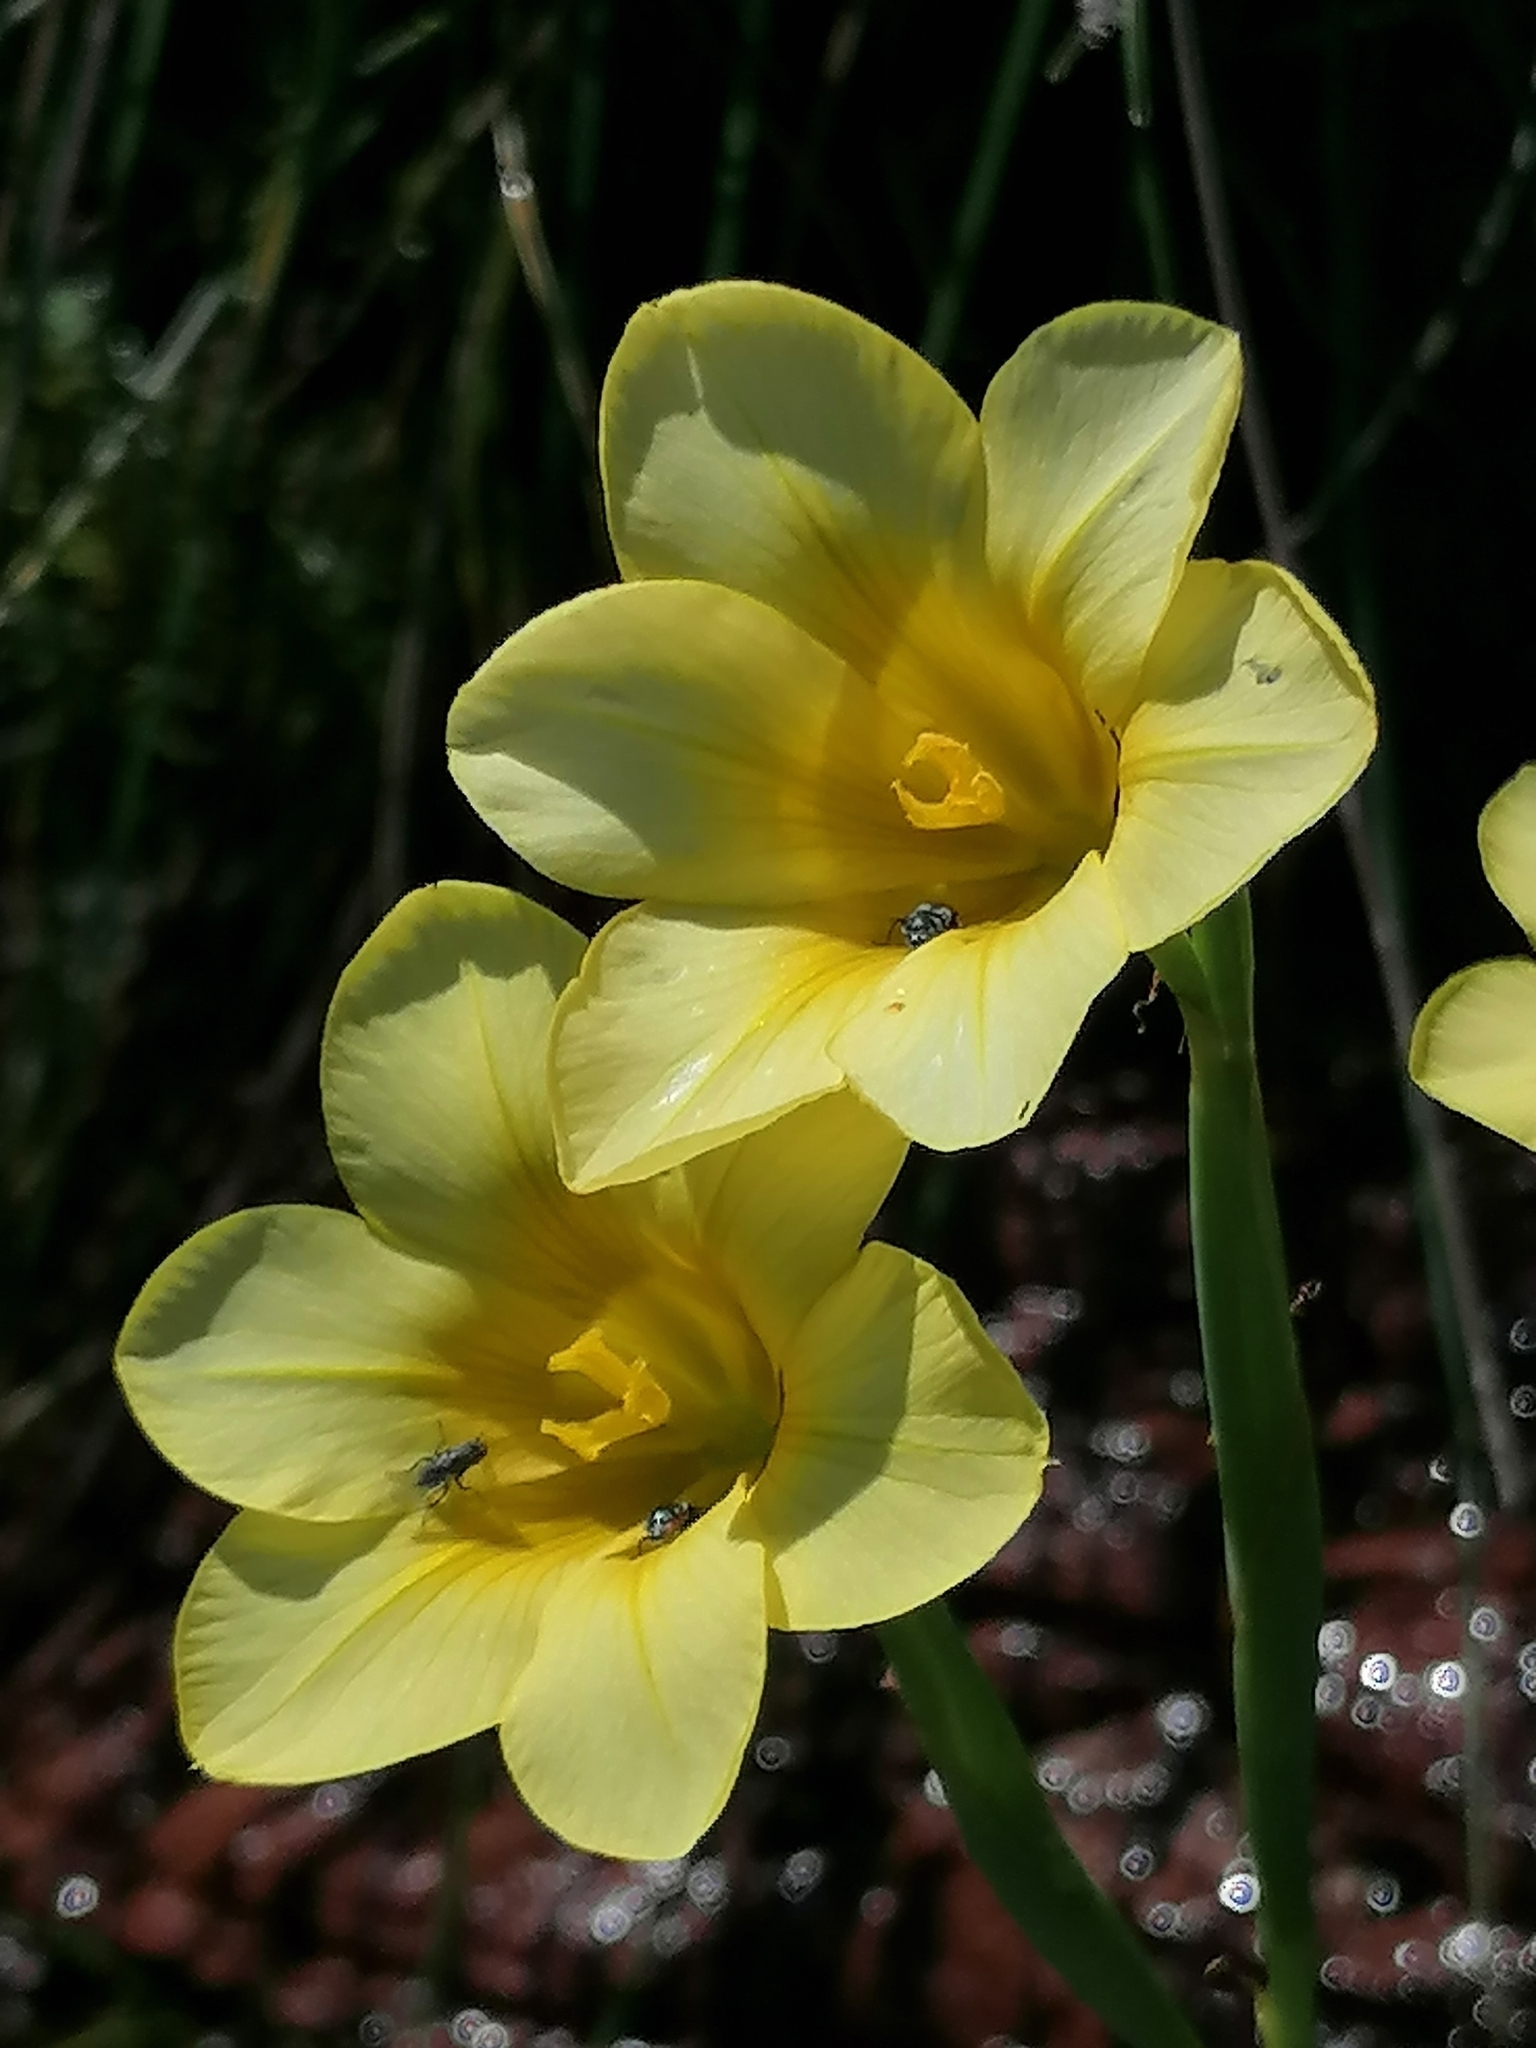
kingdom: Plantae
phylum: Tracheophyta
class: Liliopsida
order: Asparagales
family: Iridaceae
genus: Moraea
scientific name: Moraea ochroleuca
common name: Red tulp
